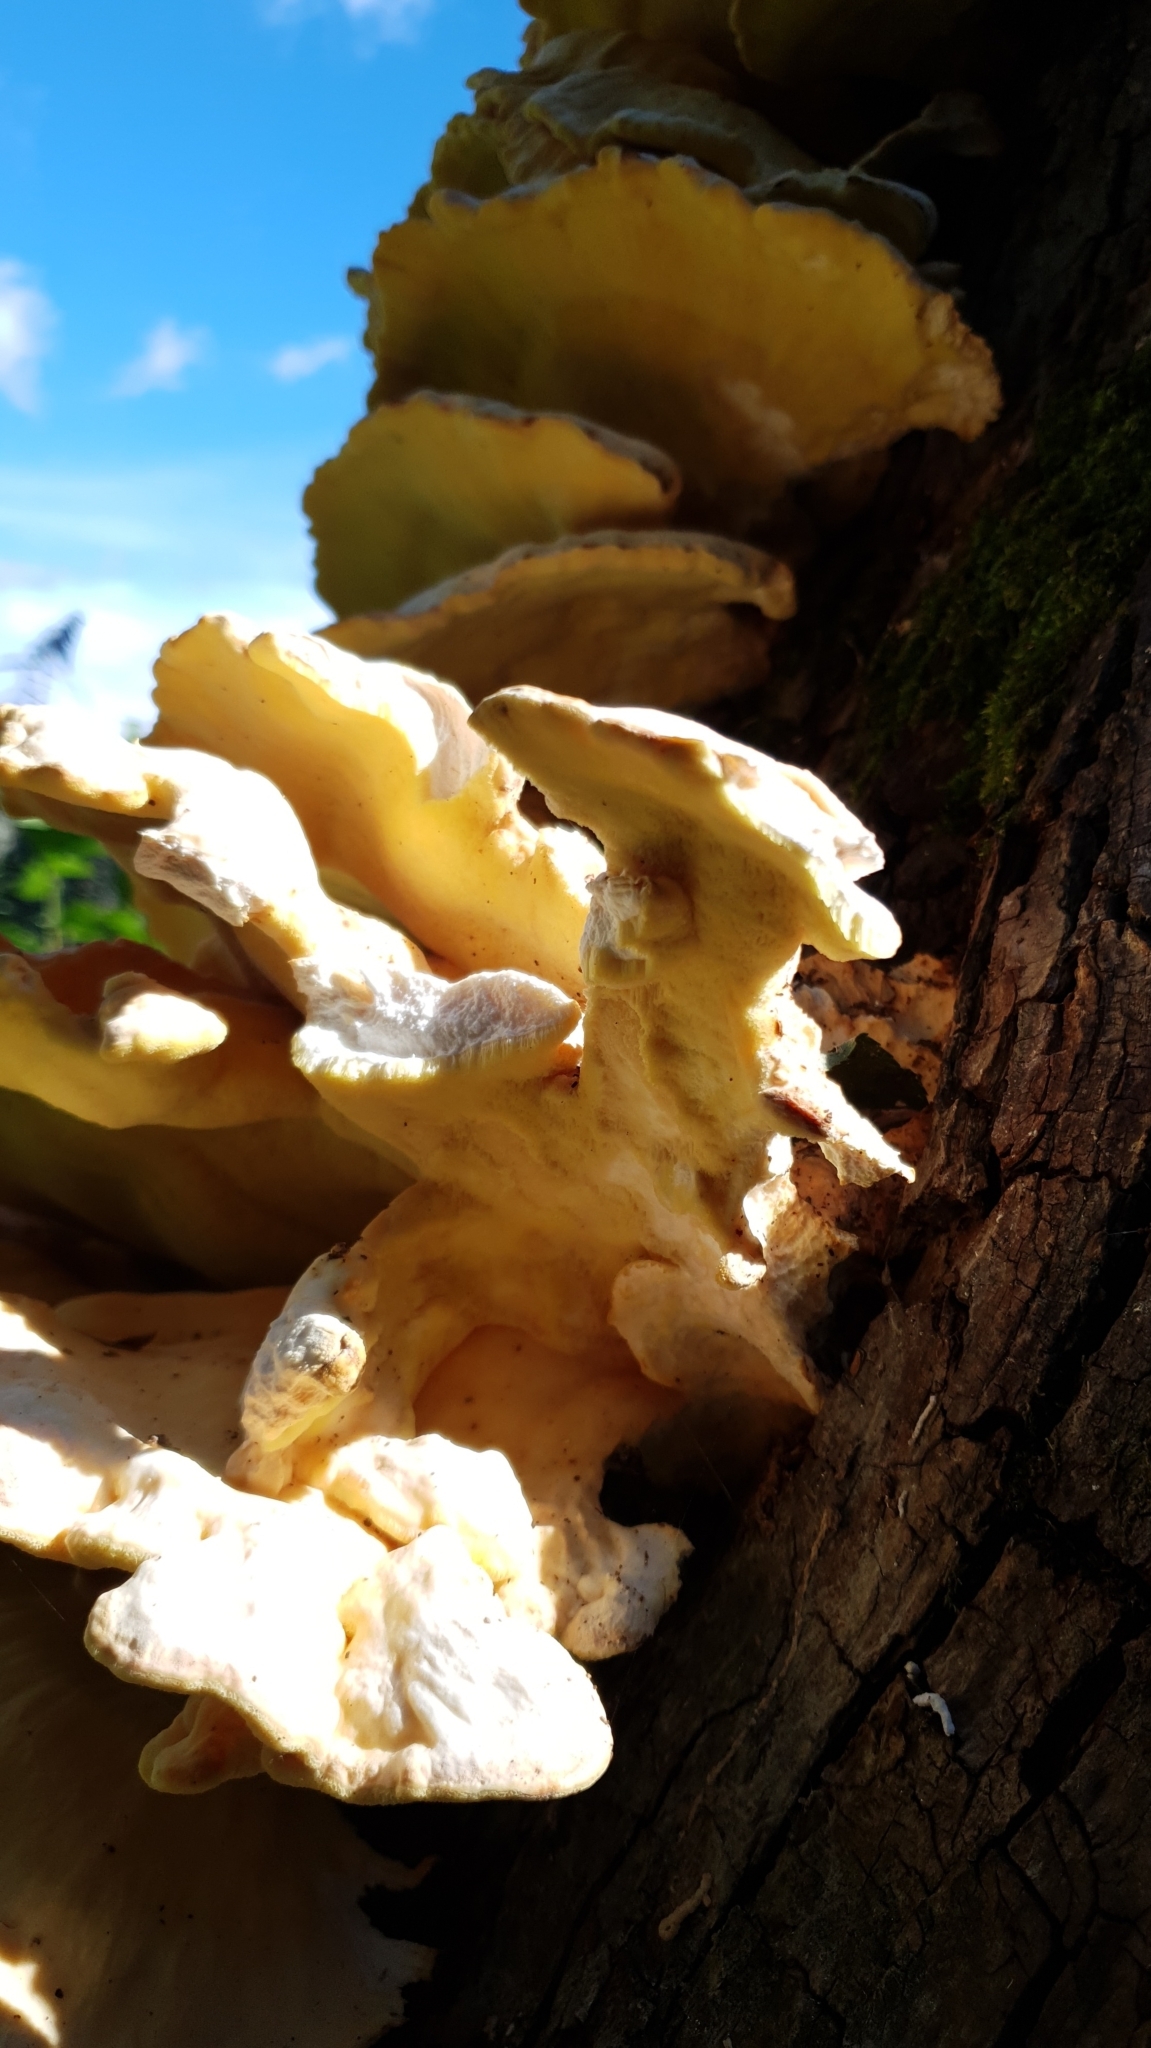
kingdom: Fungi
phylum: Basidiomycota
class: Agaricomycetes
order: Polyporales
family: Laetiporaceae
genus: Laetiporus
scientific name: Laetiporus sulphureus
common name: Chicken of the woods
